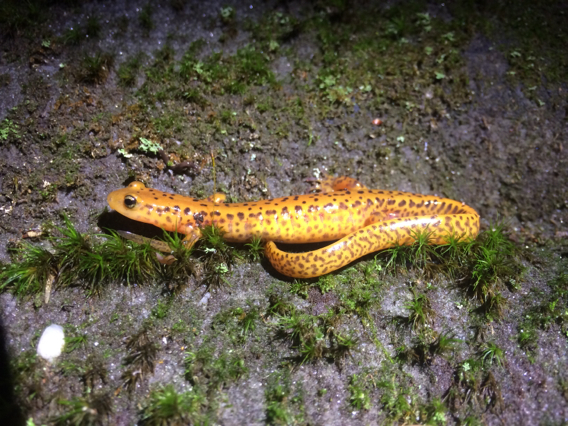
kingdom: Animalia
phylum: Chordata
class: Amphibia
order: Caudata
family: Plethodontidae
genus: Eurycea
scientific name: Eurycea longicauda
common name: Long-tailed salamander
